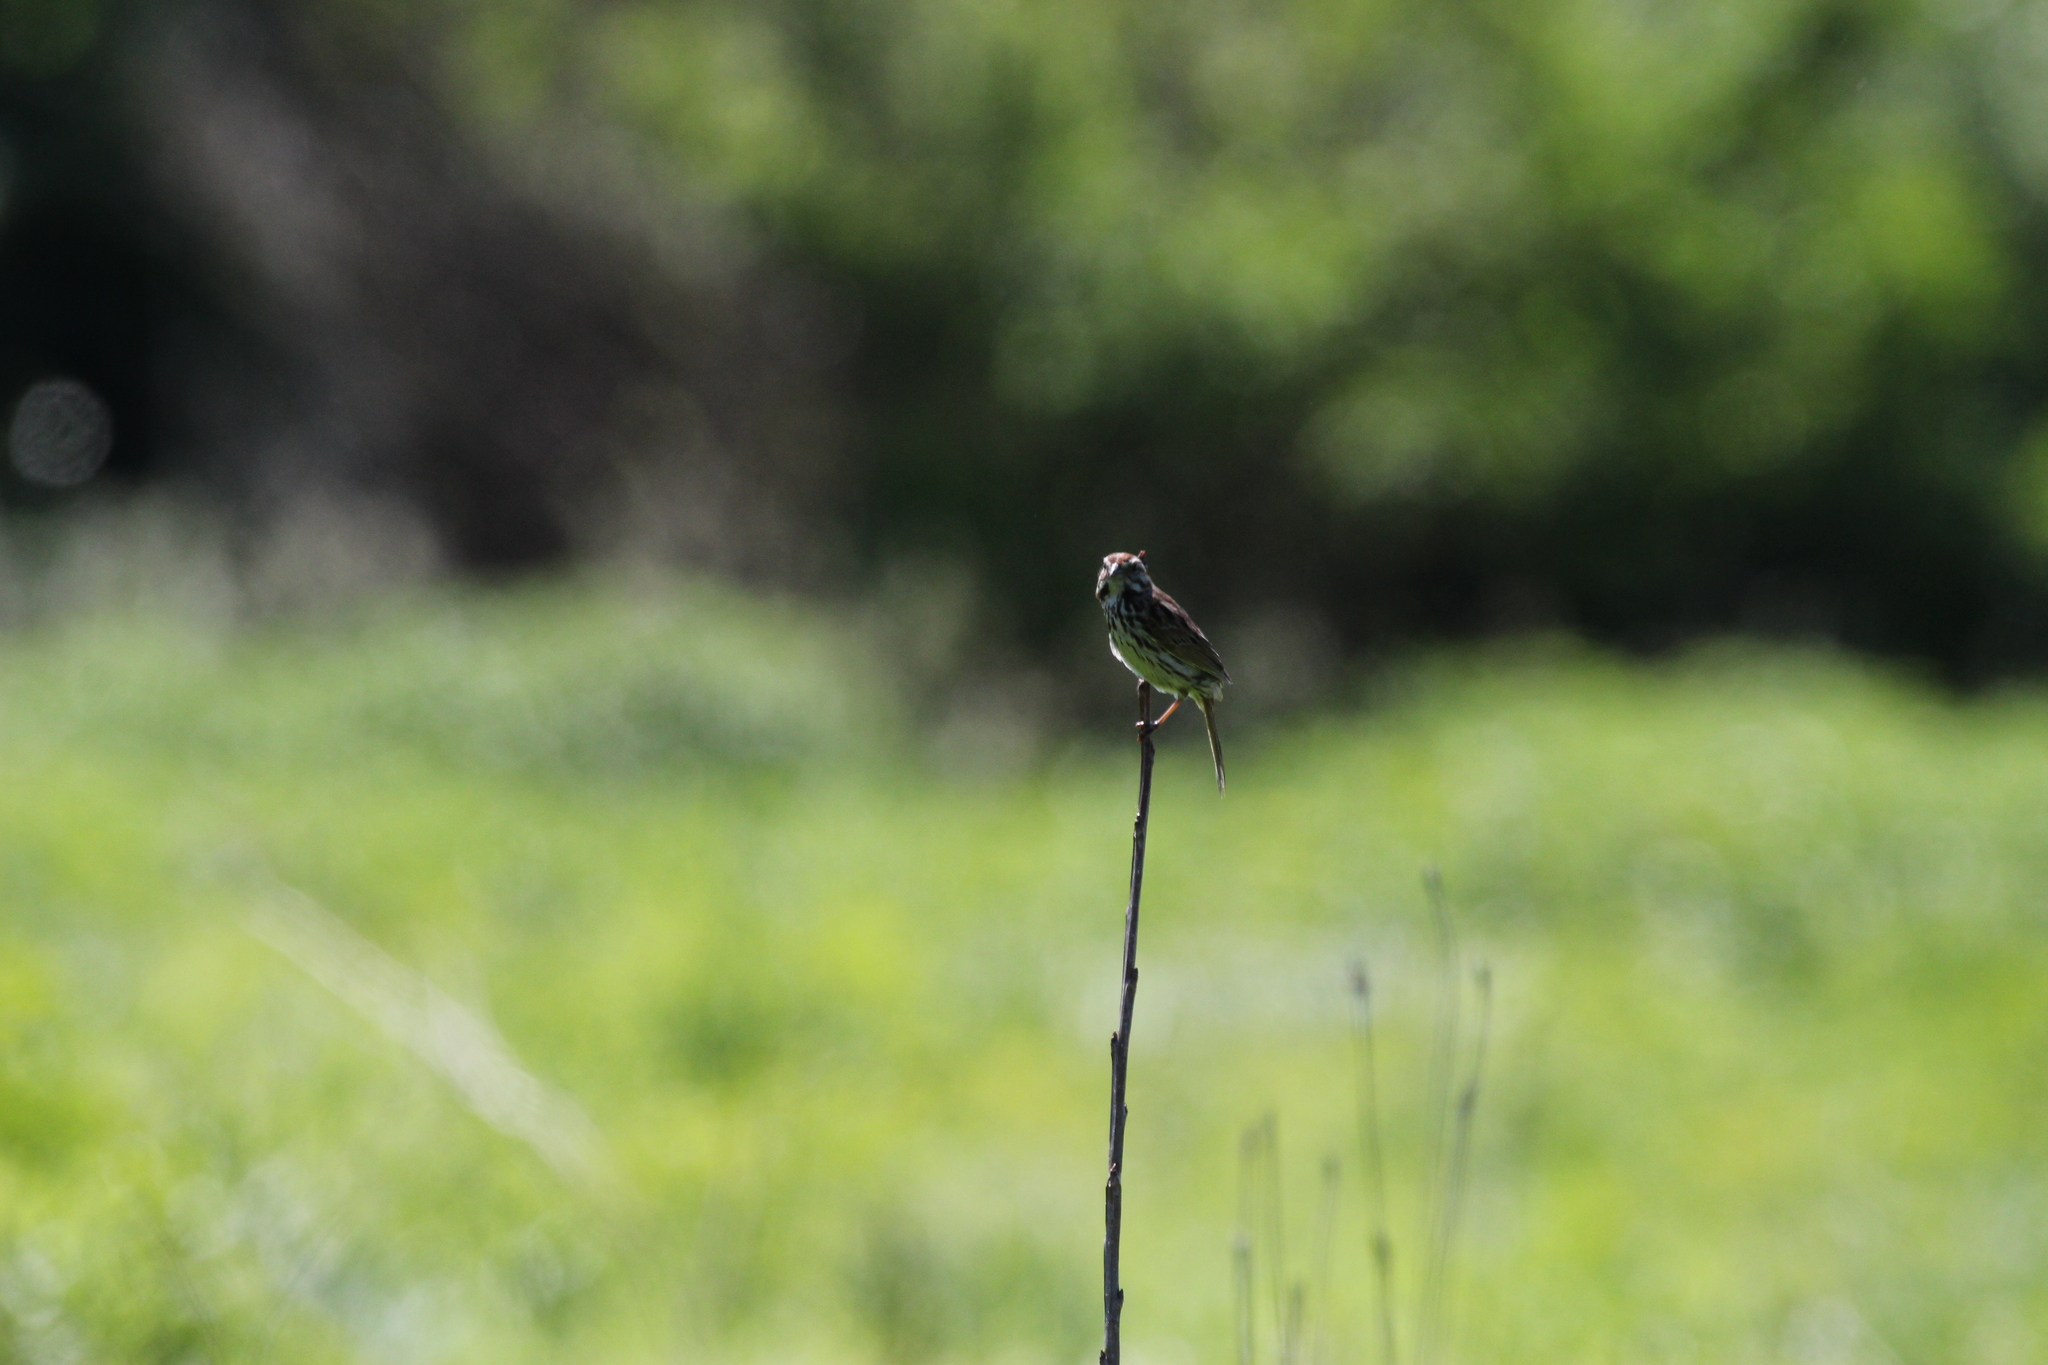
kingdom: Animalia
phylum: Chordata
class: Aves
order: Passeriformes
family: Passerellidae
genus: Melospiza
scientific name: Melospiza melodia
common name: Song sparrow
